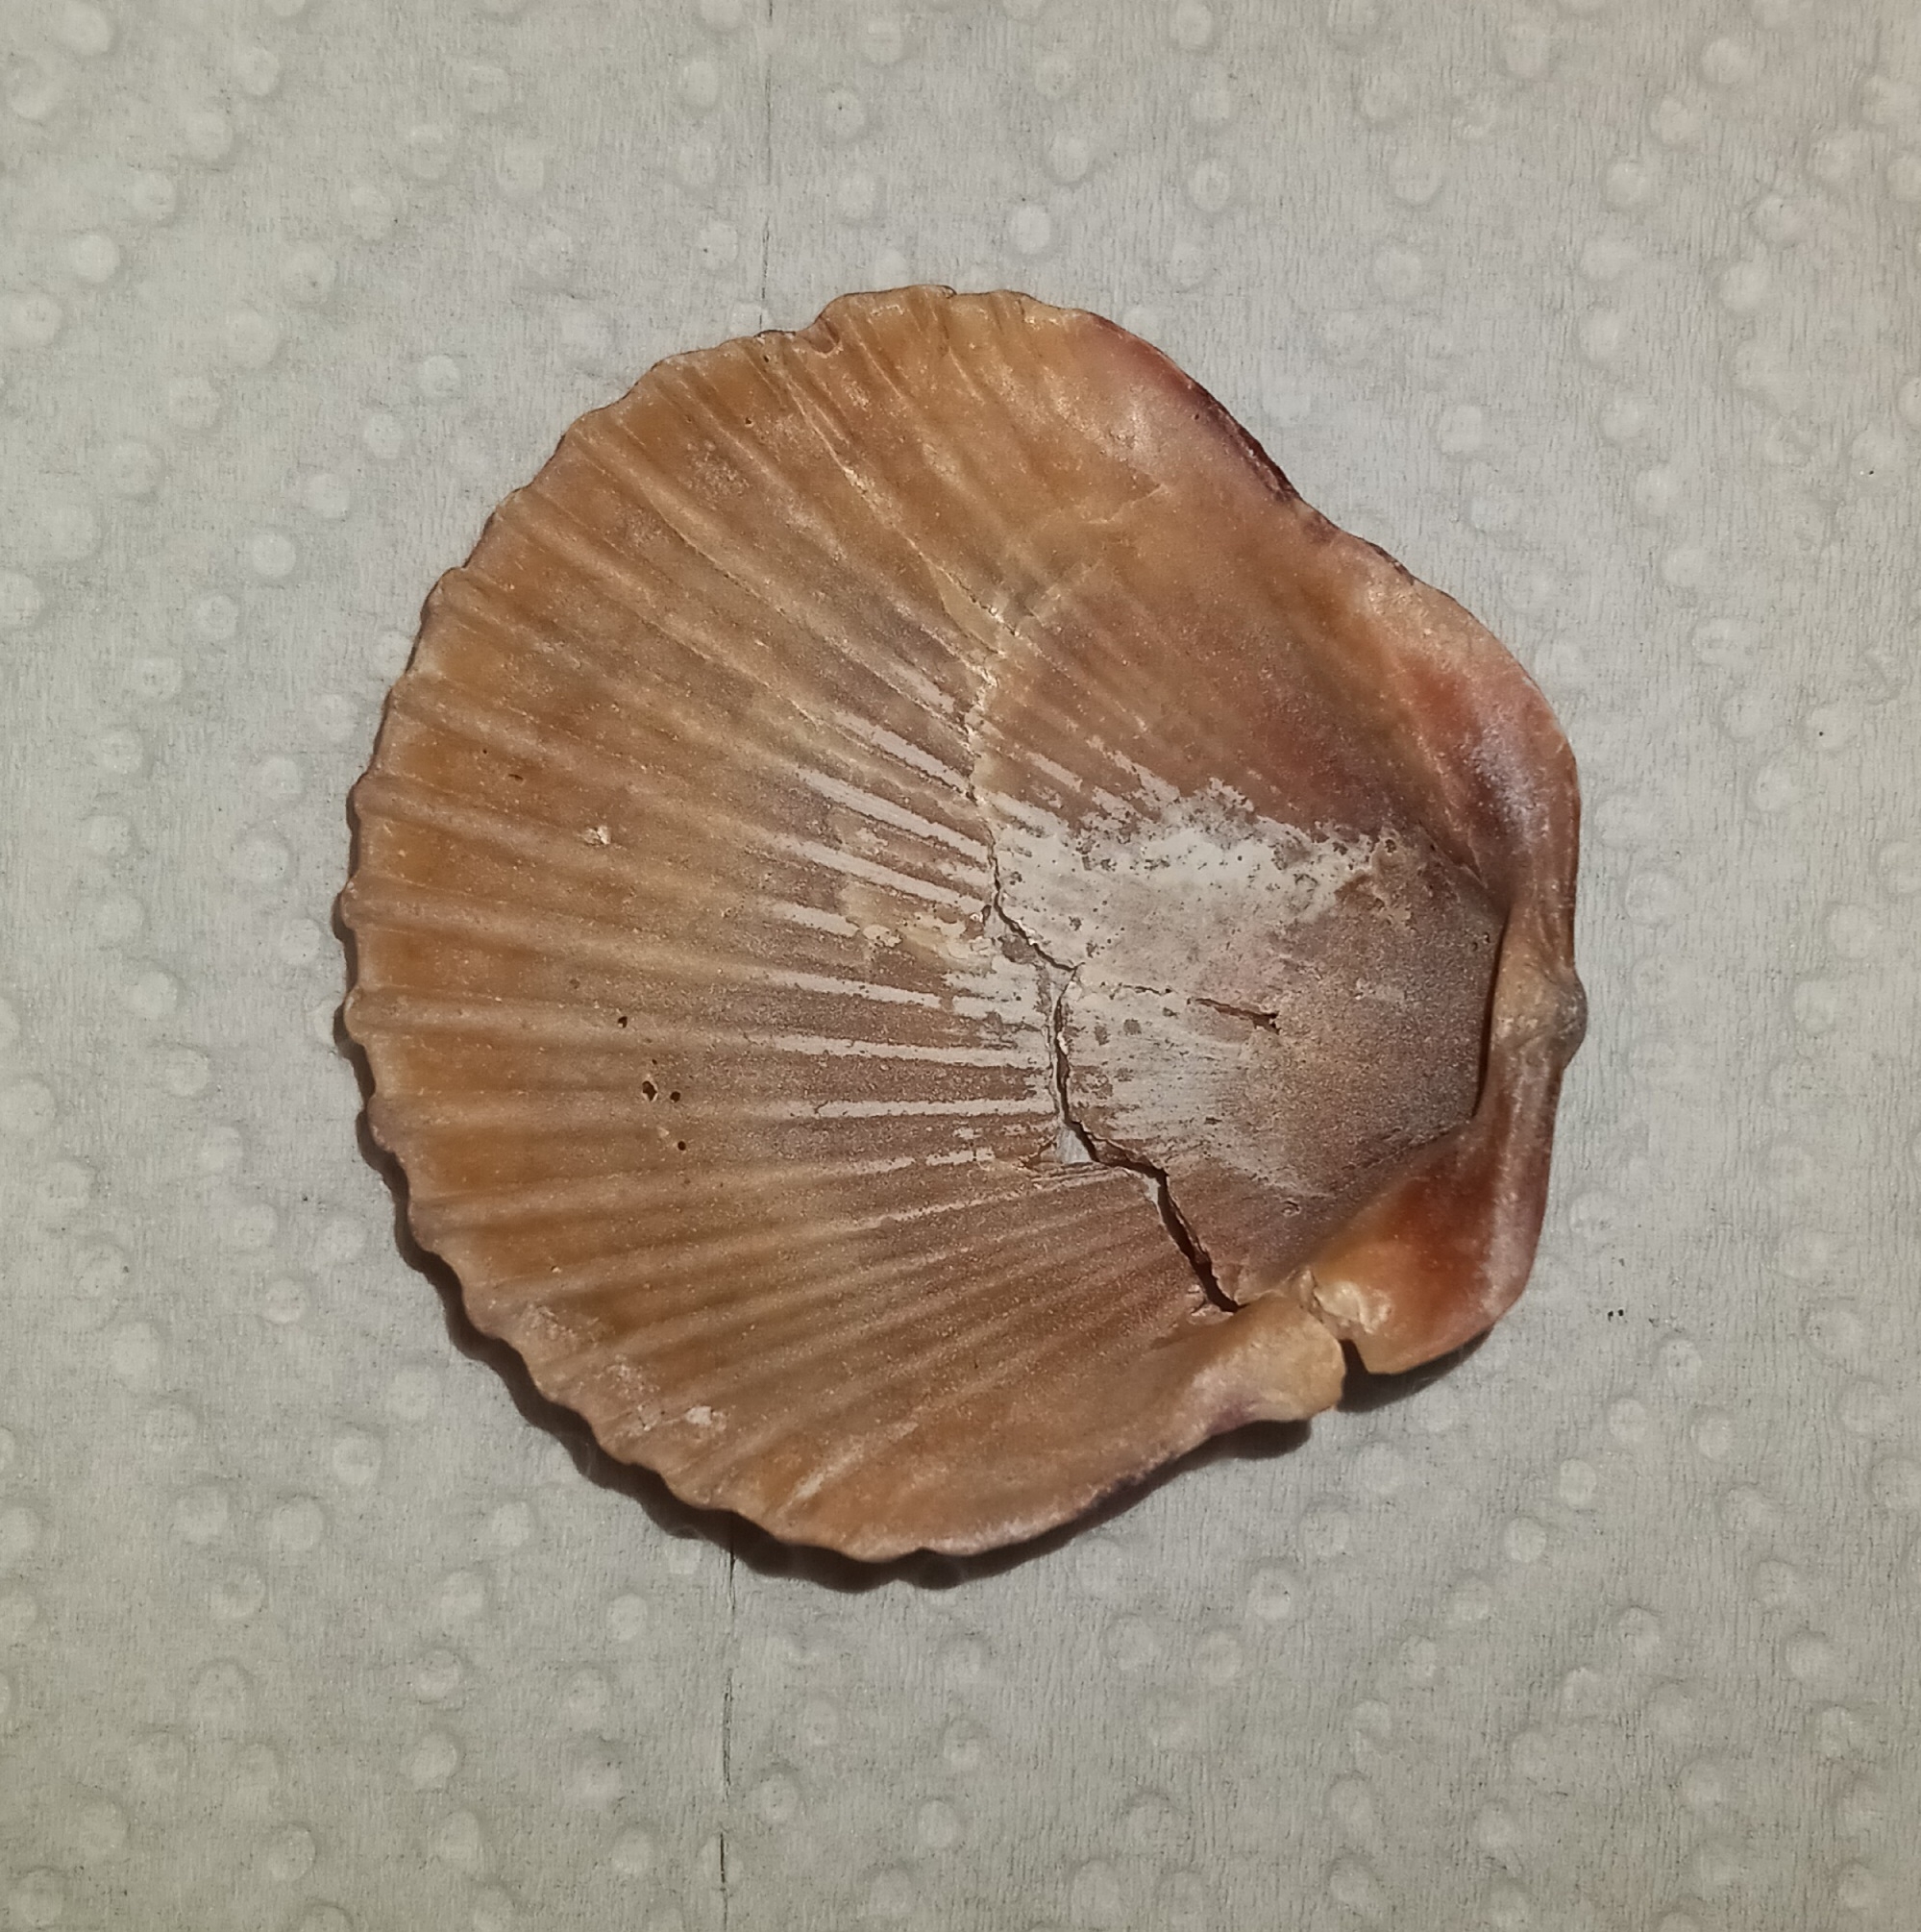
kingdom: Animalia
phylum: Mollusca
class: Bivalvia
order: Pectinida
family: Pectinidae
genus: Argopecten
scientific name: Argopecten gibbus
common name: Atlantic calico scallop
